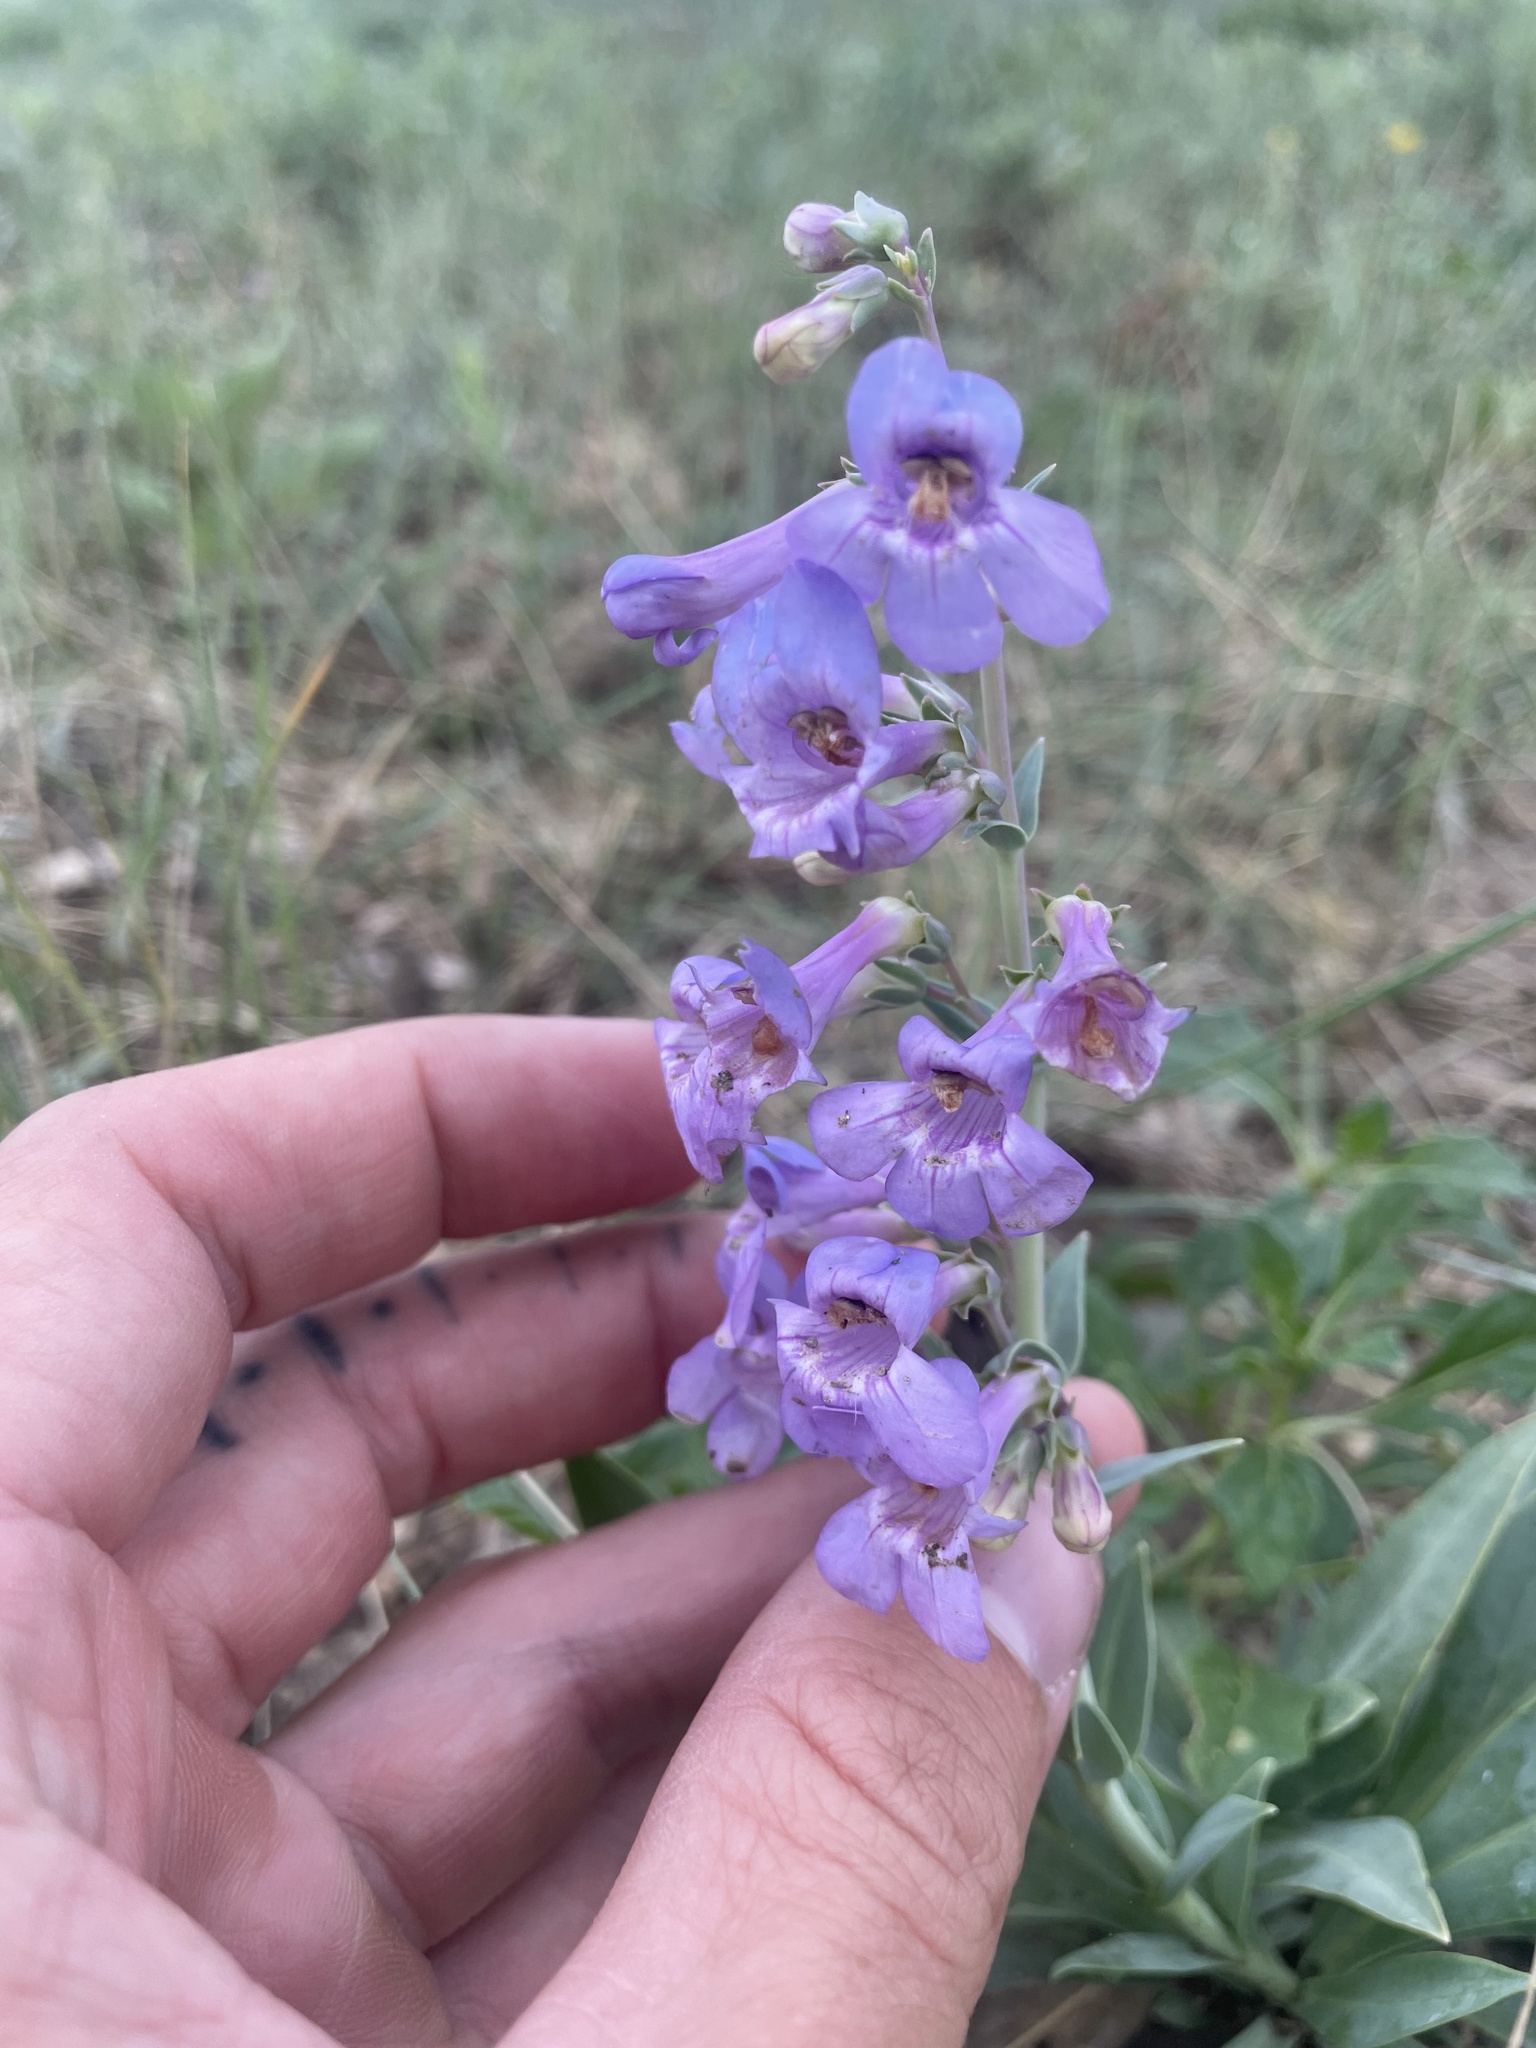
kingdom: Plantae
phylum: Tracheophyta
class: Magnoliopsida
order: Lamiales
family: Plantaginaceae
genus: Penstemon
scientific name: Penstemon secundiflorus
